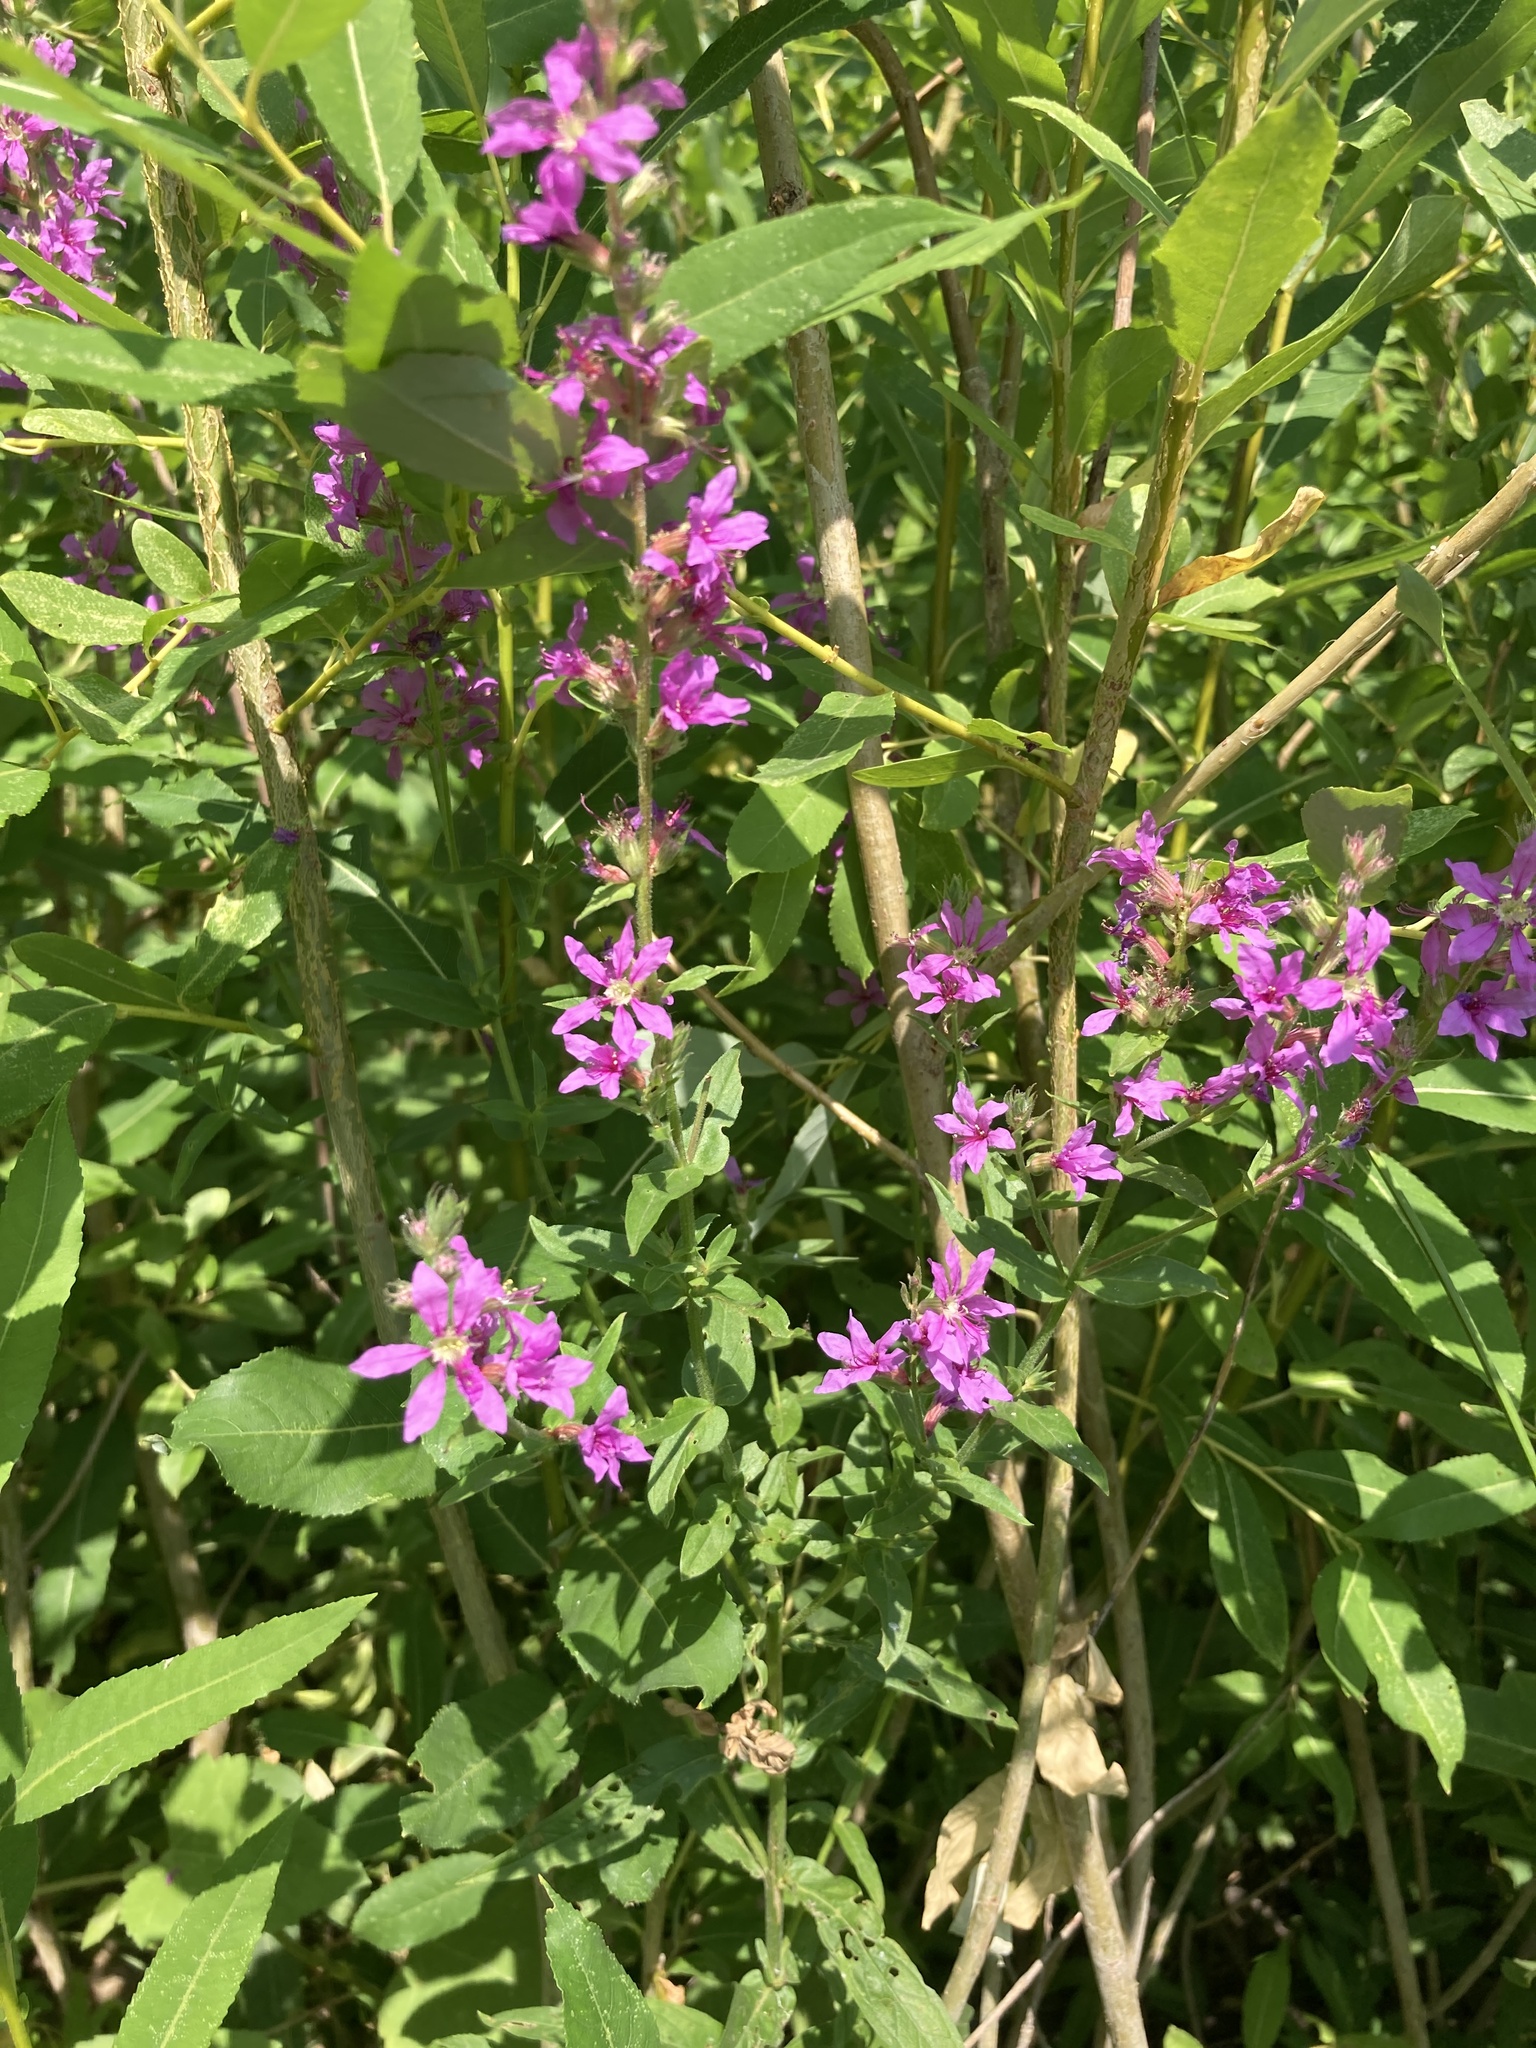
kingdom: Plantae
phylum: Tracheophyta
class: Magnoliopsida
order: Myrtales
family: Lythraceae
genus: Lythrum
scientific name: Lythrum salicaria
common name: Purple loosestrife
